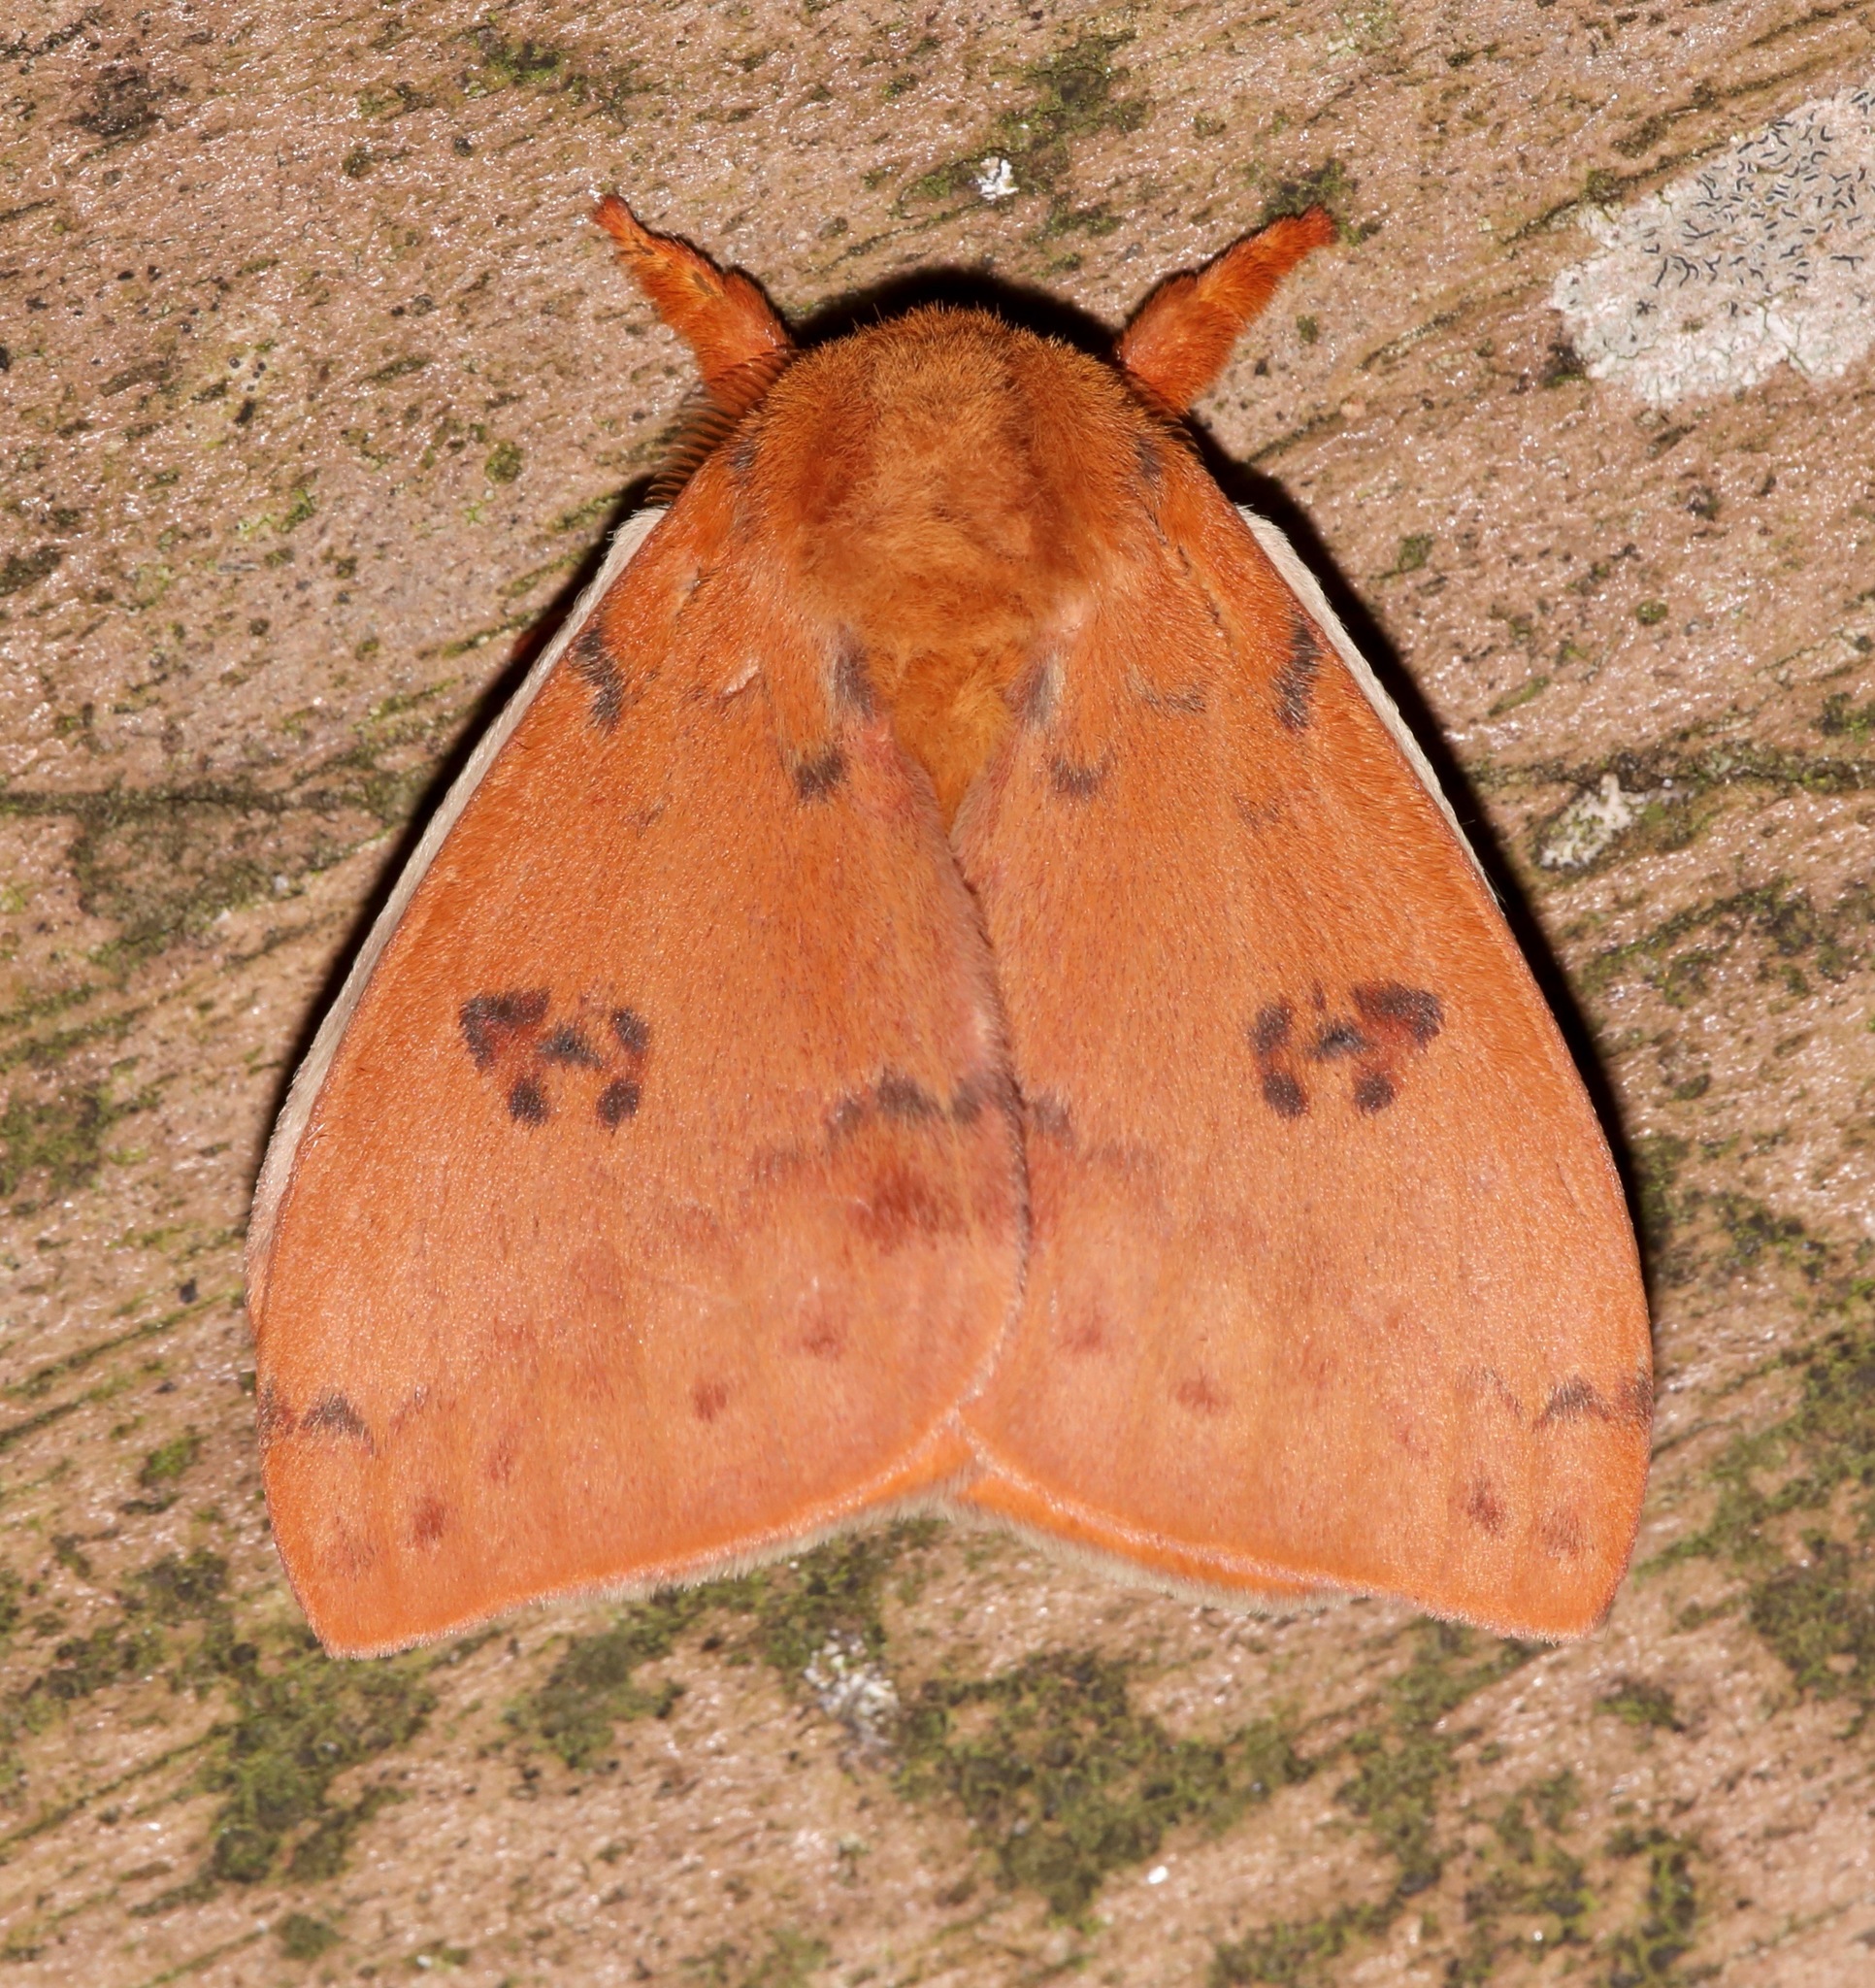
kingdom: Animalia
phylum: Arthropoda
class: Insecta
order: Lepidoptera
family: Saturniidae
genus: Automeris
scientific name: Automeris io
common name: Io moth
